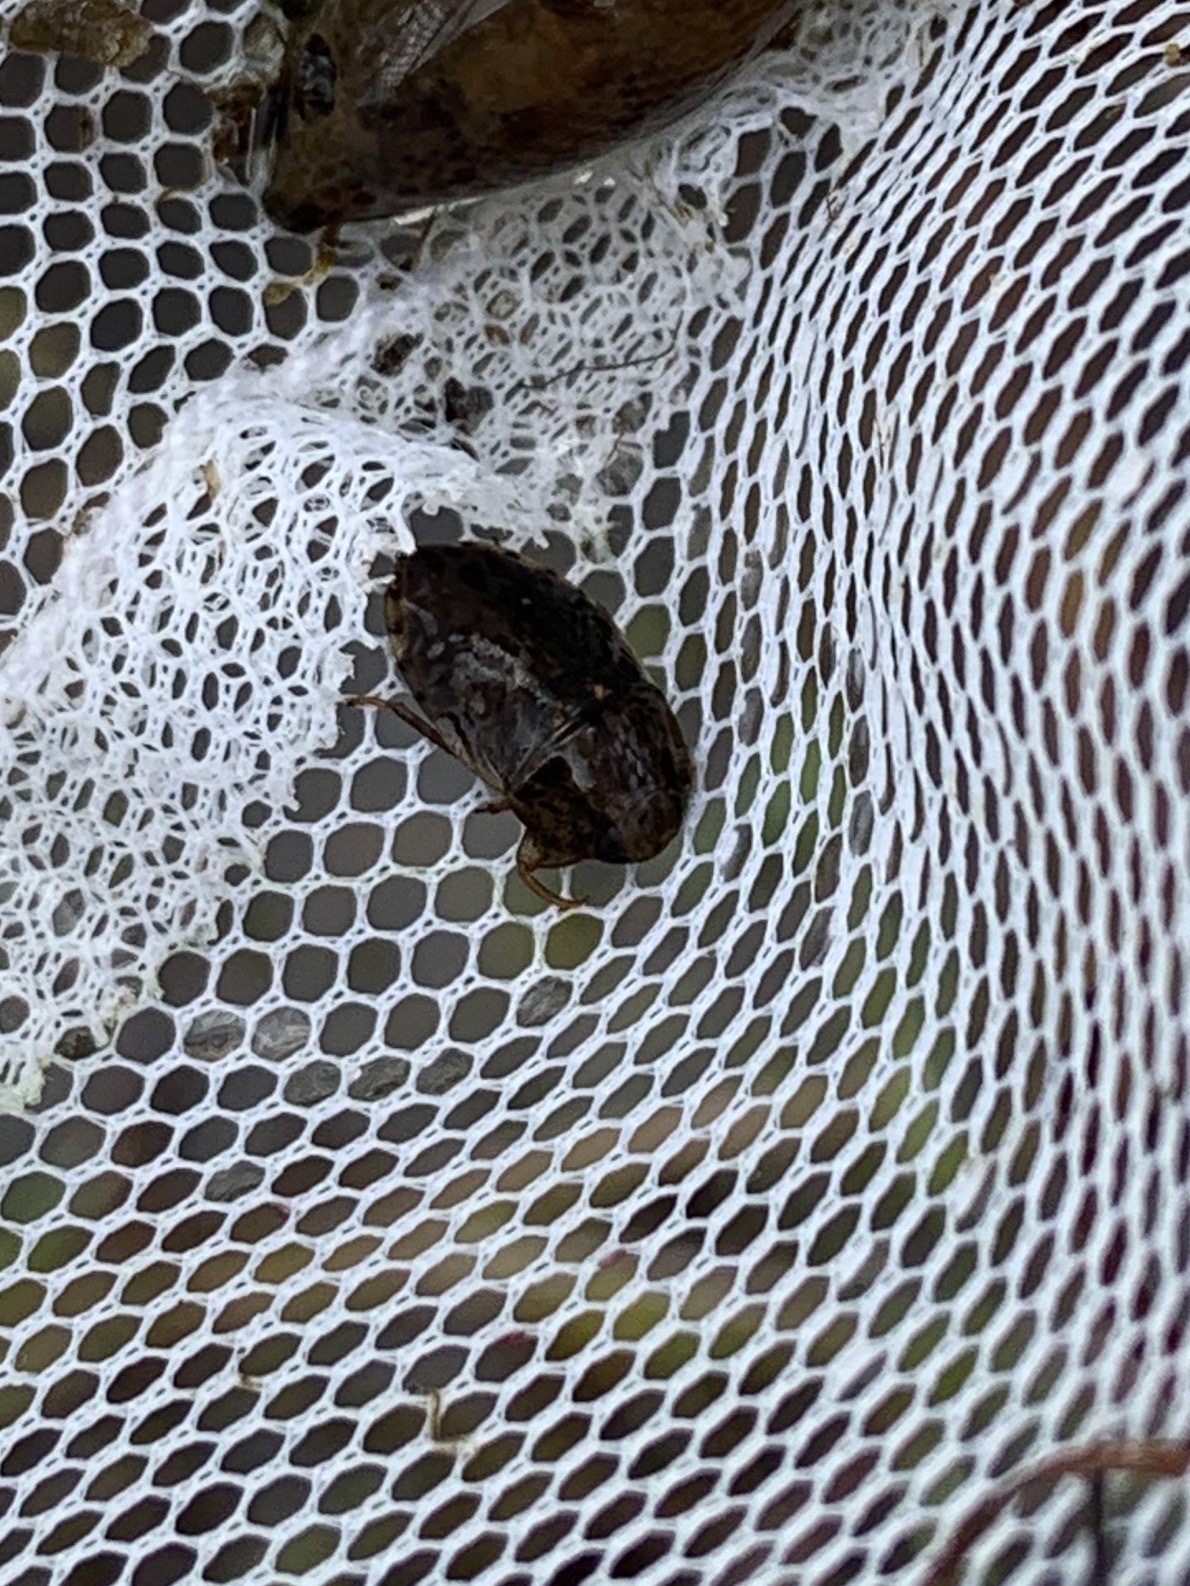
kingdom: Animalia
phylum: Arthropoda
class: Insecta
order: Hemiptera
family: Naucoridae
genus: Pelocoris
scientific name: Pelocoris
